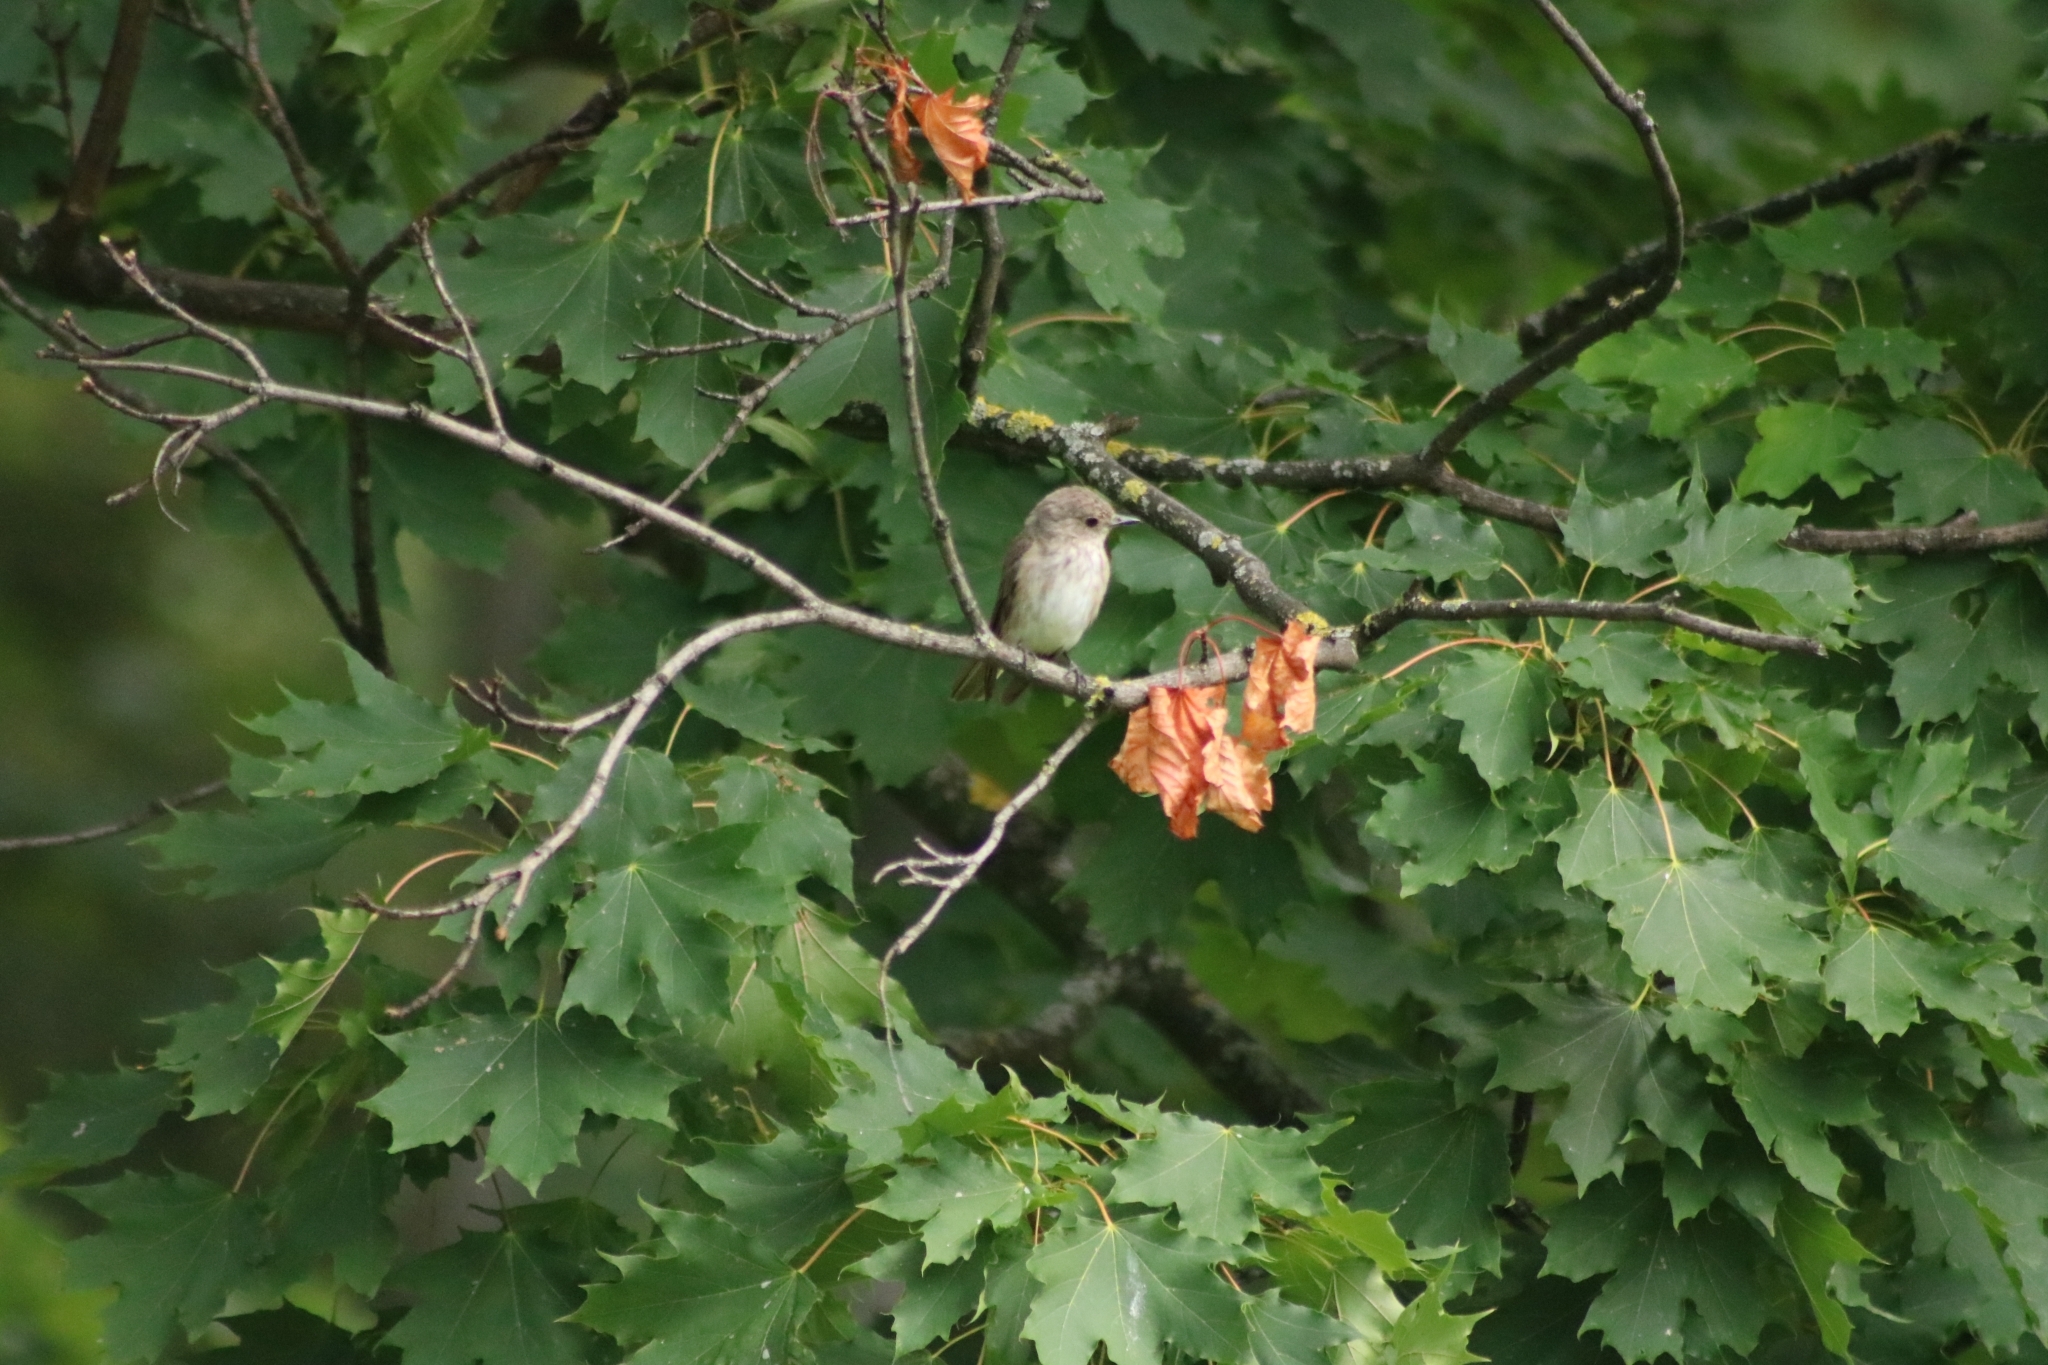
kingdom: Animalia
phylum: Chordata
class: Aves
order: Passeriformes
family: Muscicapidae
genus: Muscicapa
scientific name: Muscicapa striata
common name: Spotted flycatcher
